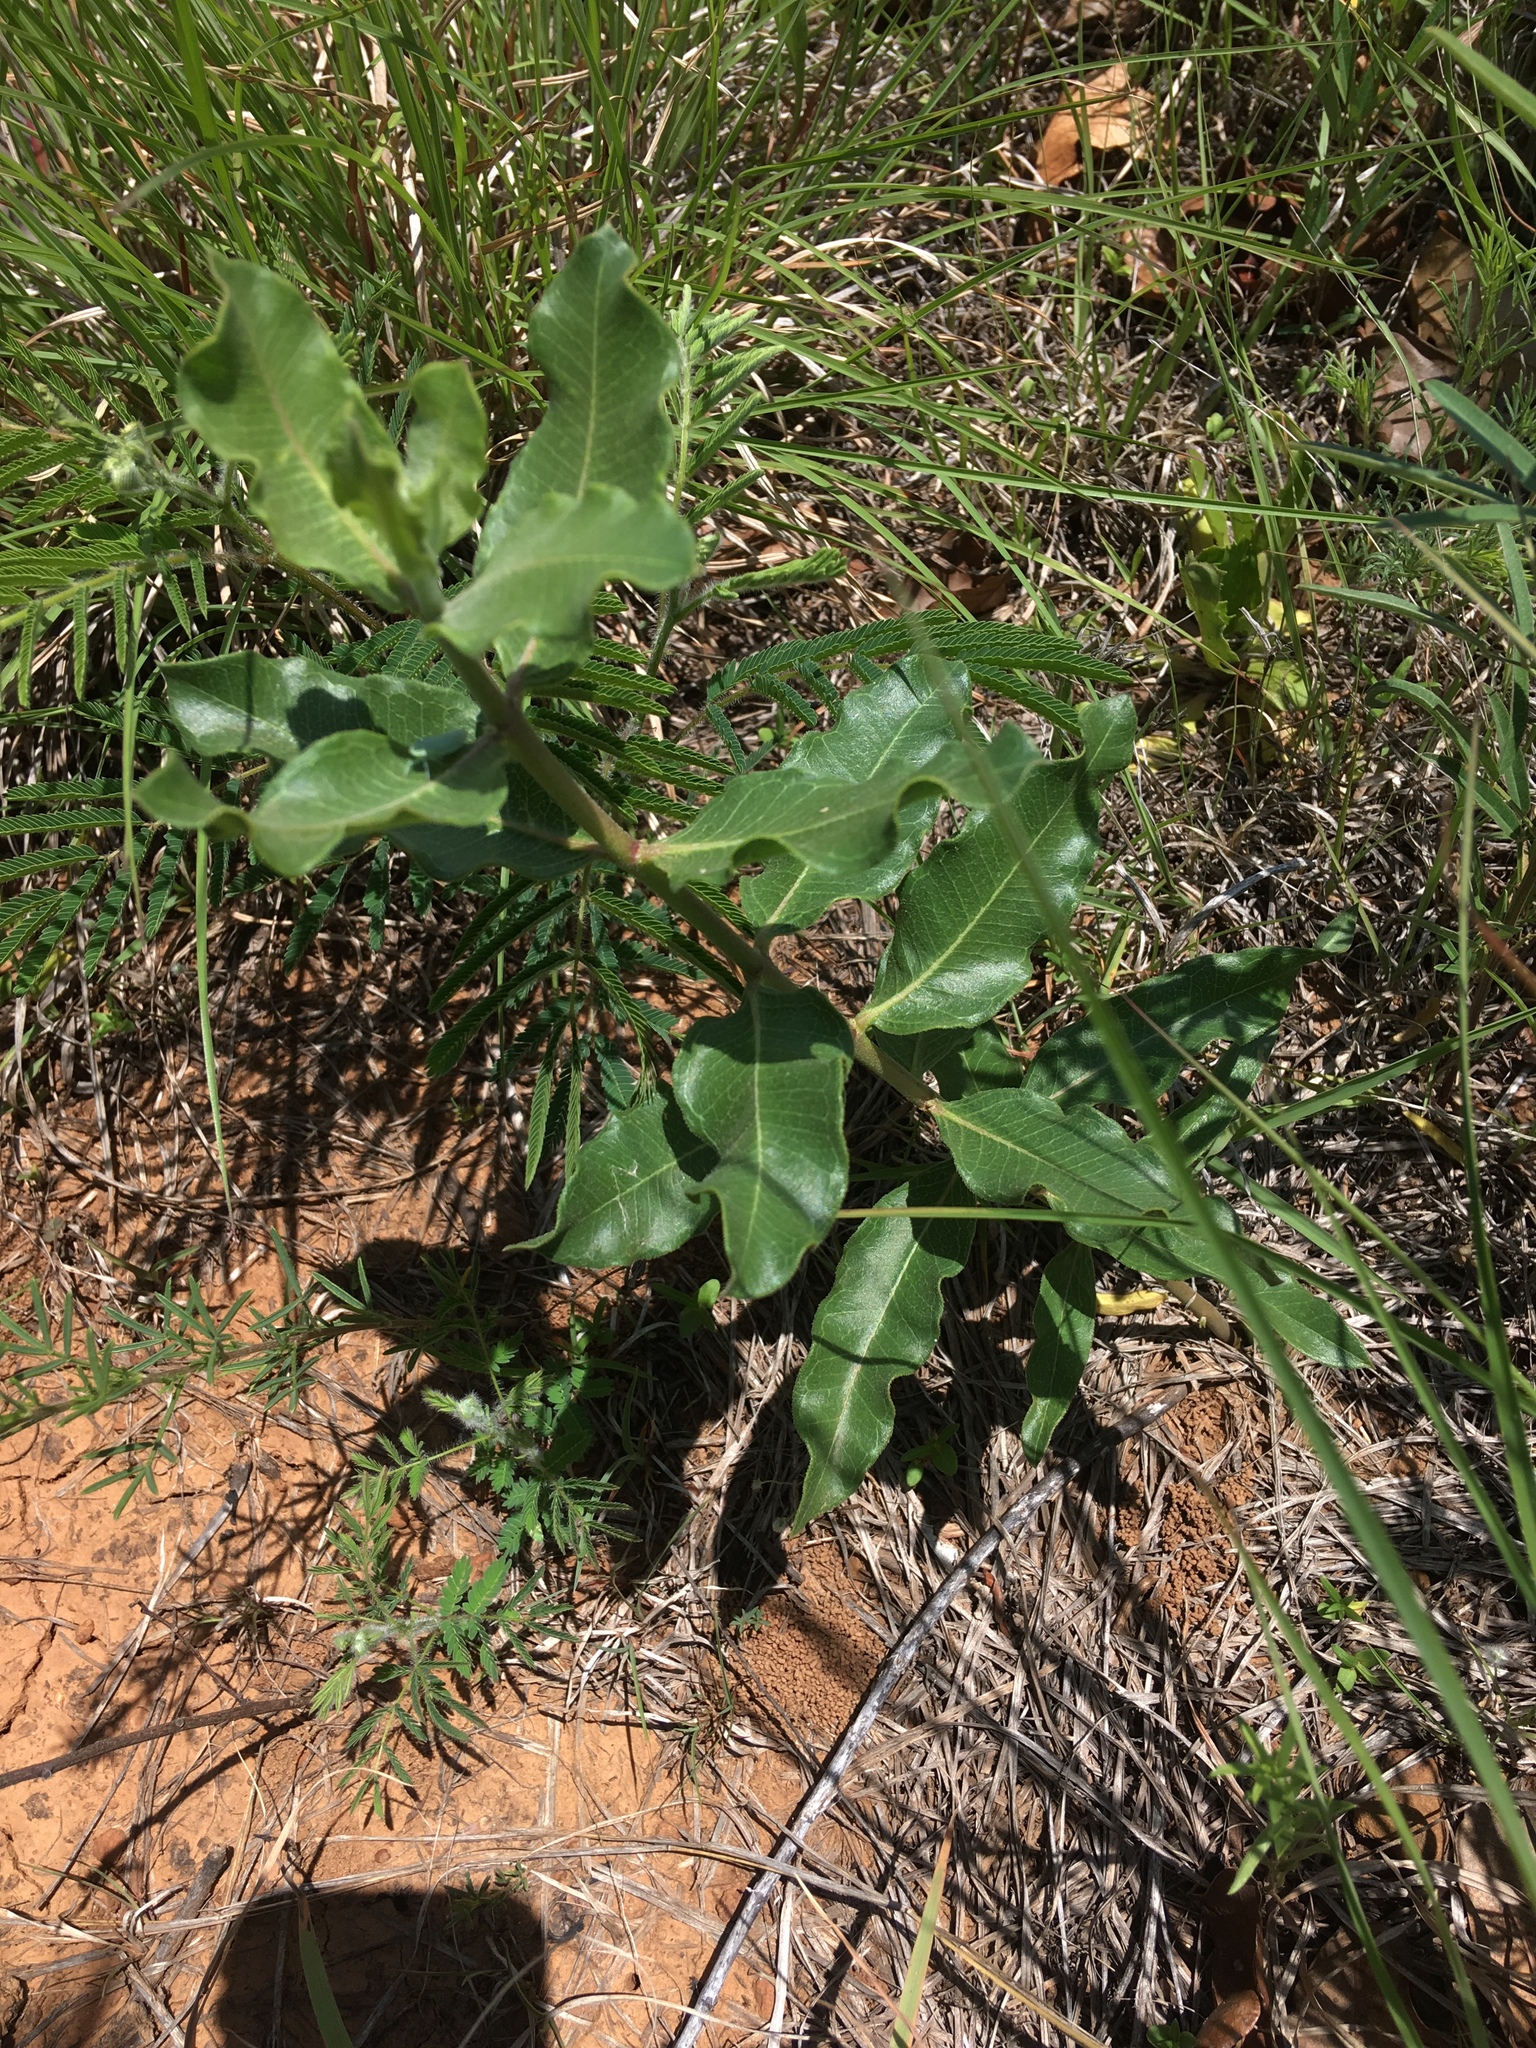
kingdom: Plantae
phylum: Tracheophyta
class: Magnoliopsida
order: Gentianales
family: Apocynaceae
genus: Asclepias
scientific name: Asclepias viridiflora
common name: Green comet milkweed
